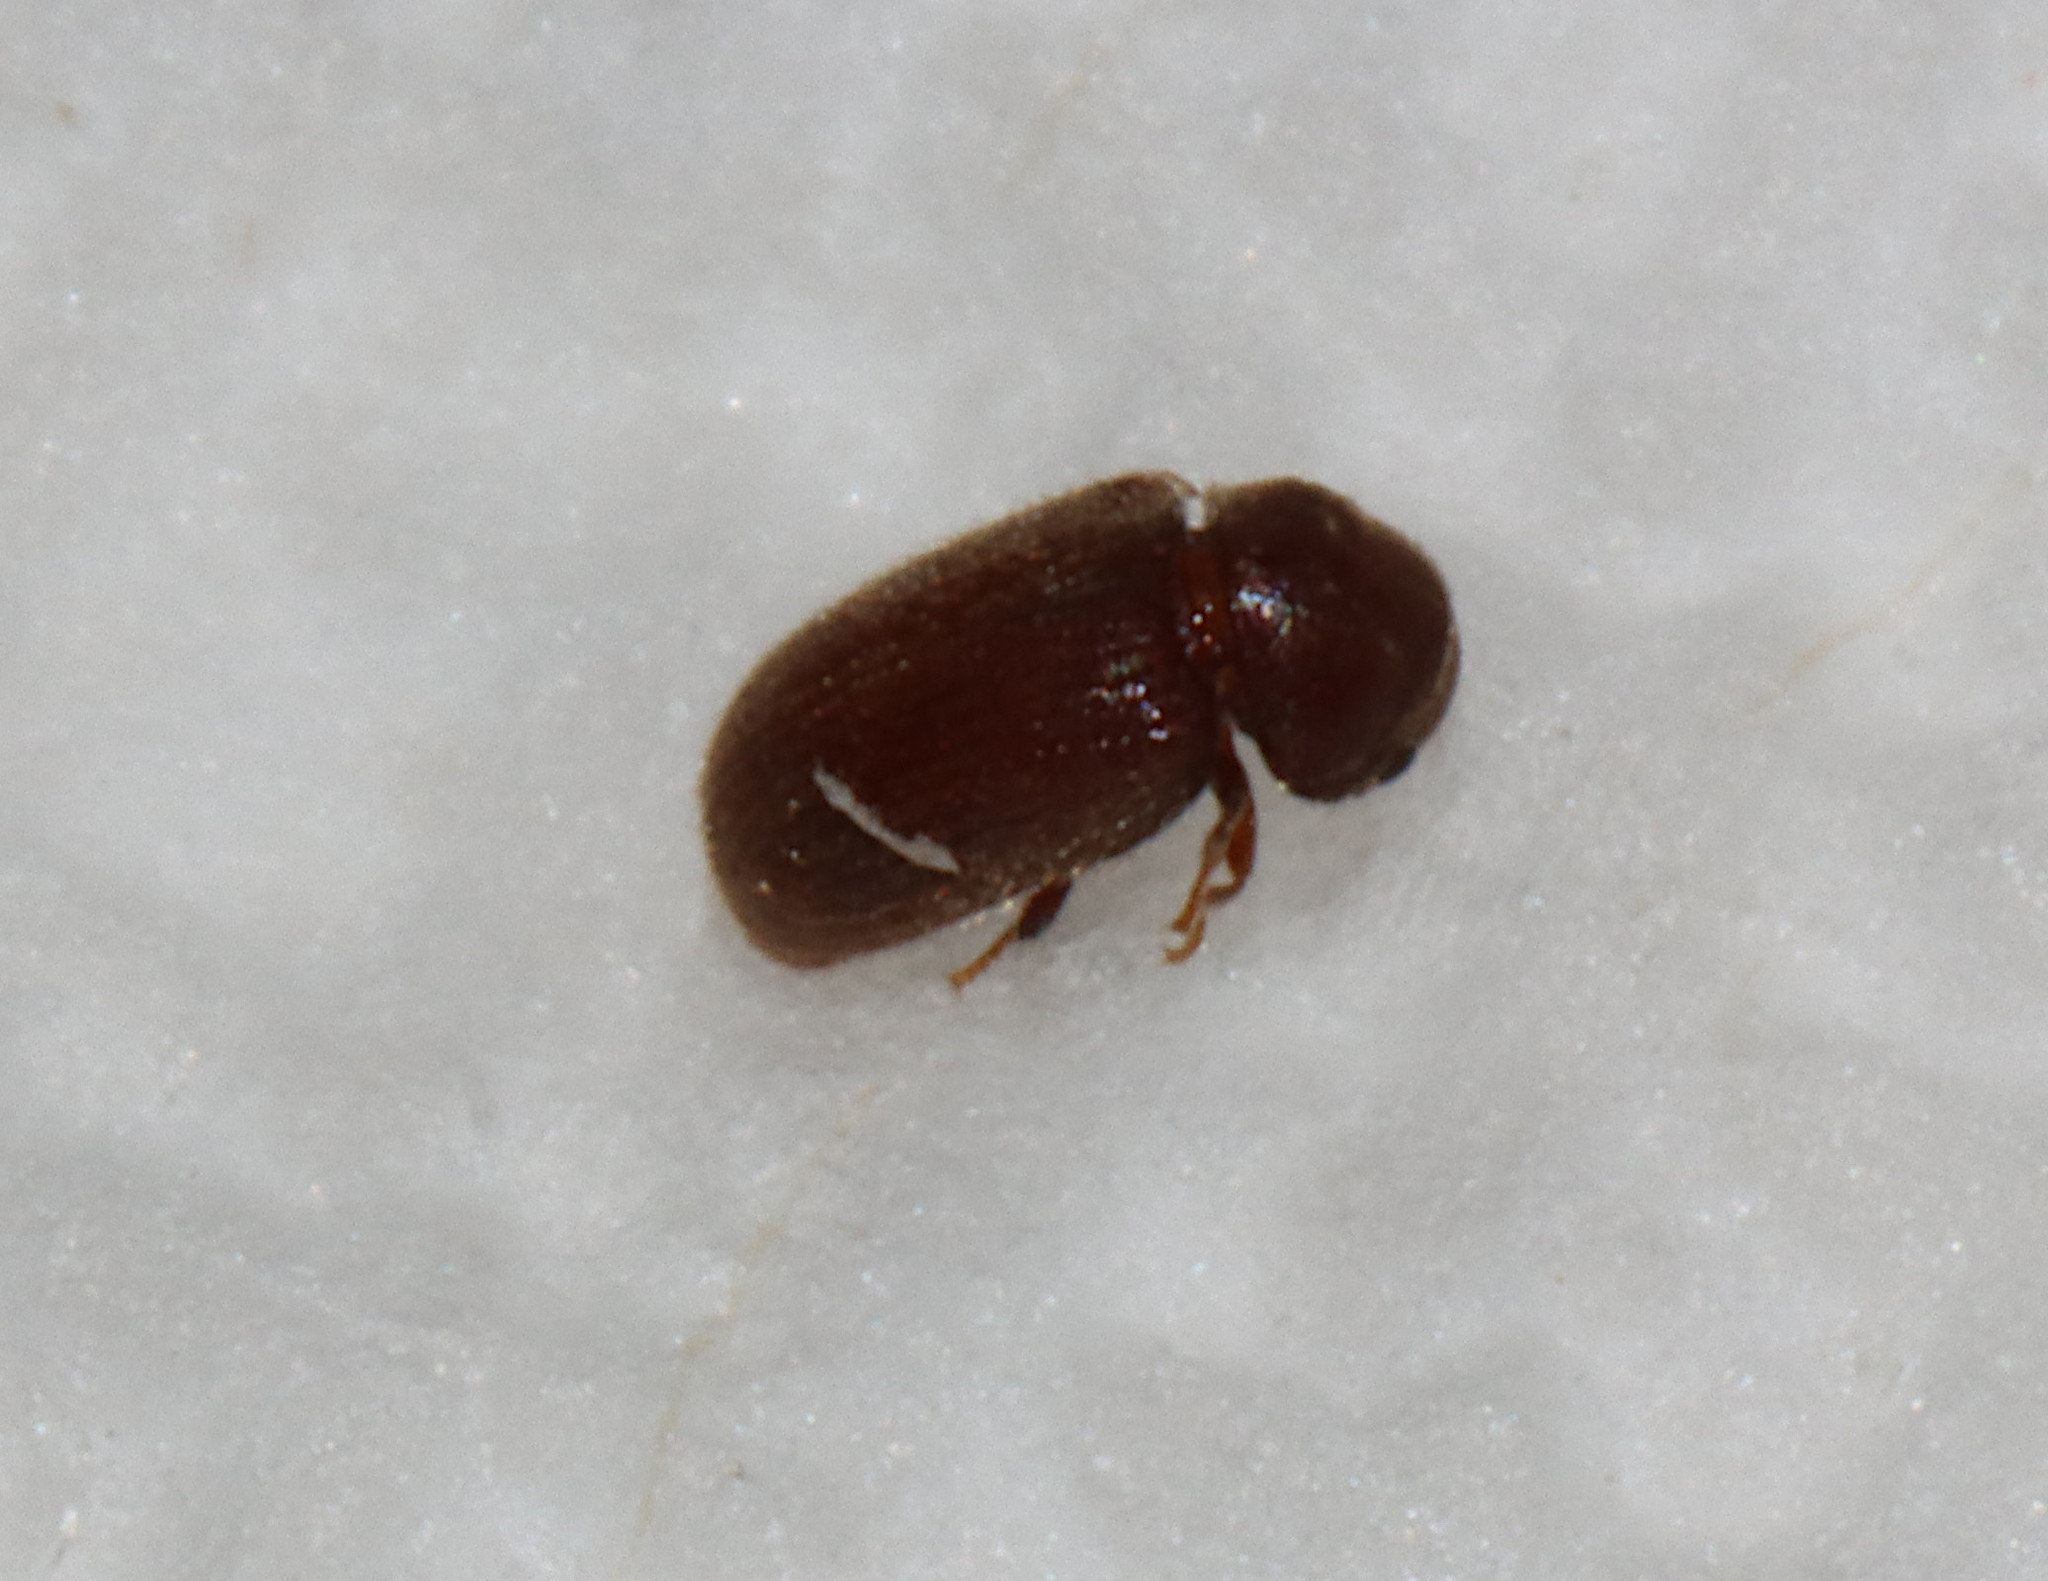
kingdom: Animalia
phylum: Arthropoda
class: Insecta
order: Coleoptera
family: Anobiidae
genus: Stegobium
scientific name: Stegobium paniceum
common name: Drugstore beetle
